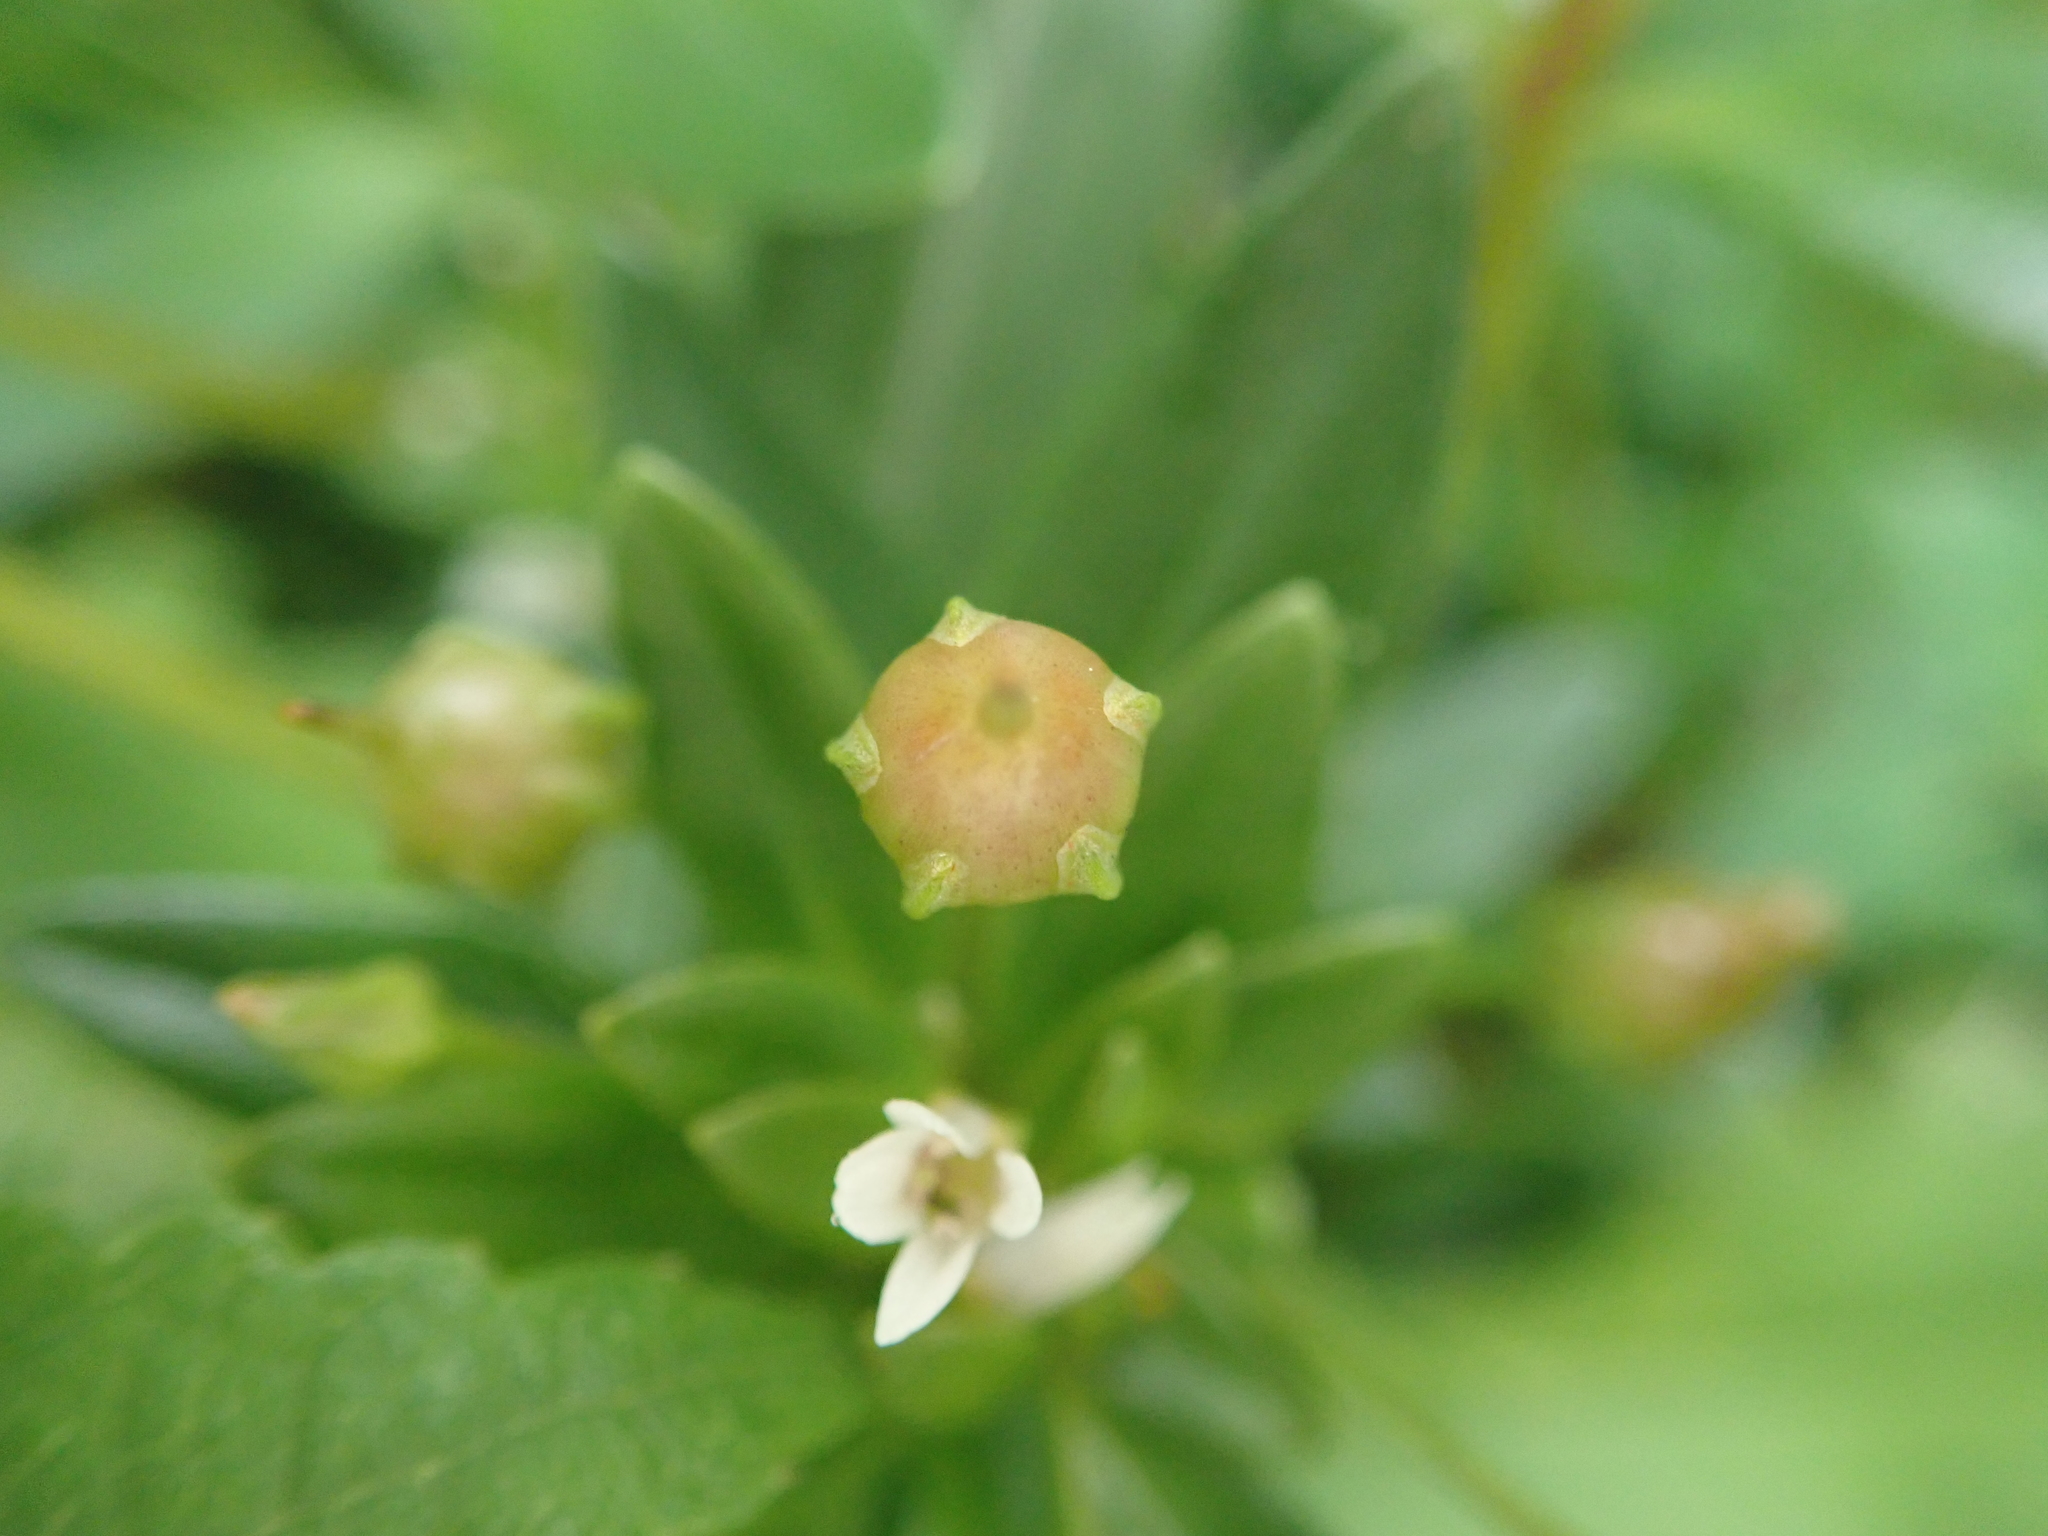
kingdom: Plantae
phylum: Tracheophyta
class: Magnoliopsida
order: Ericales
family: Primulaceae
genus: Lysimachia
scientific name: Lysimachia mauritiana
